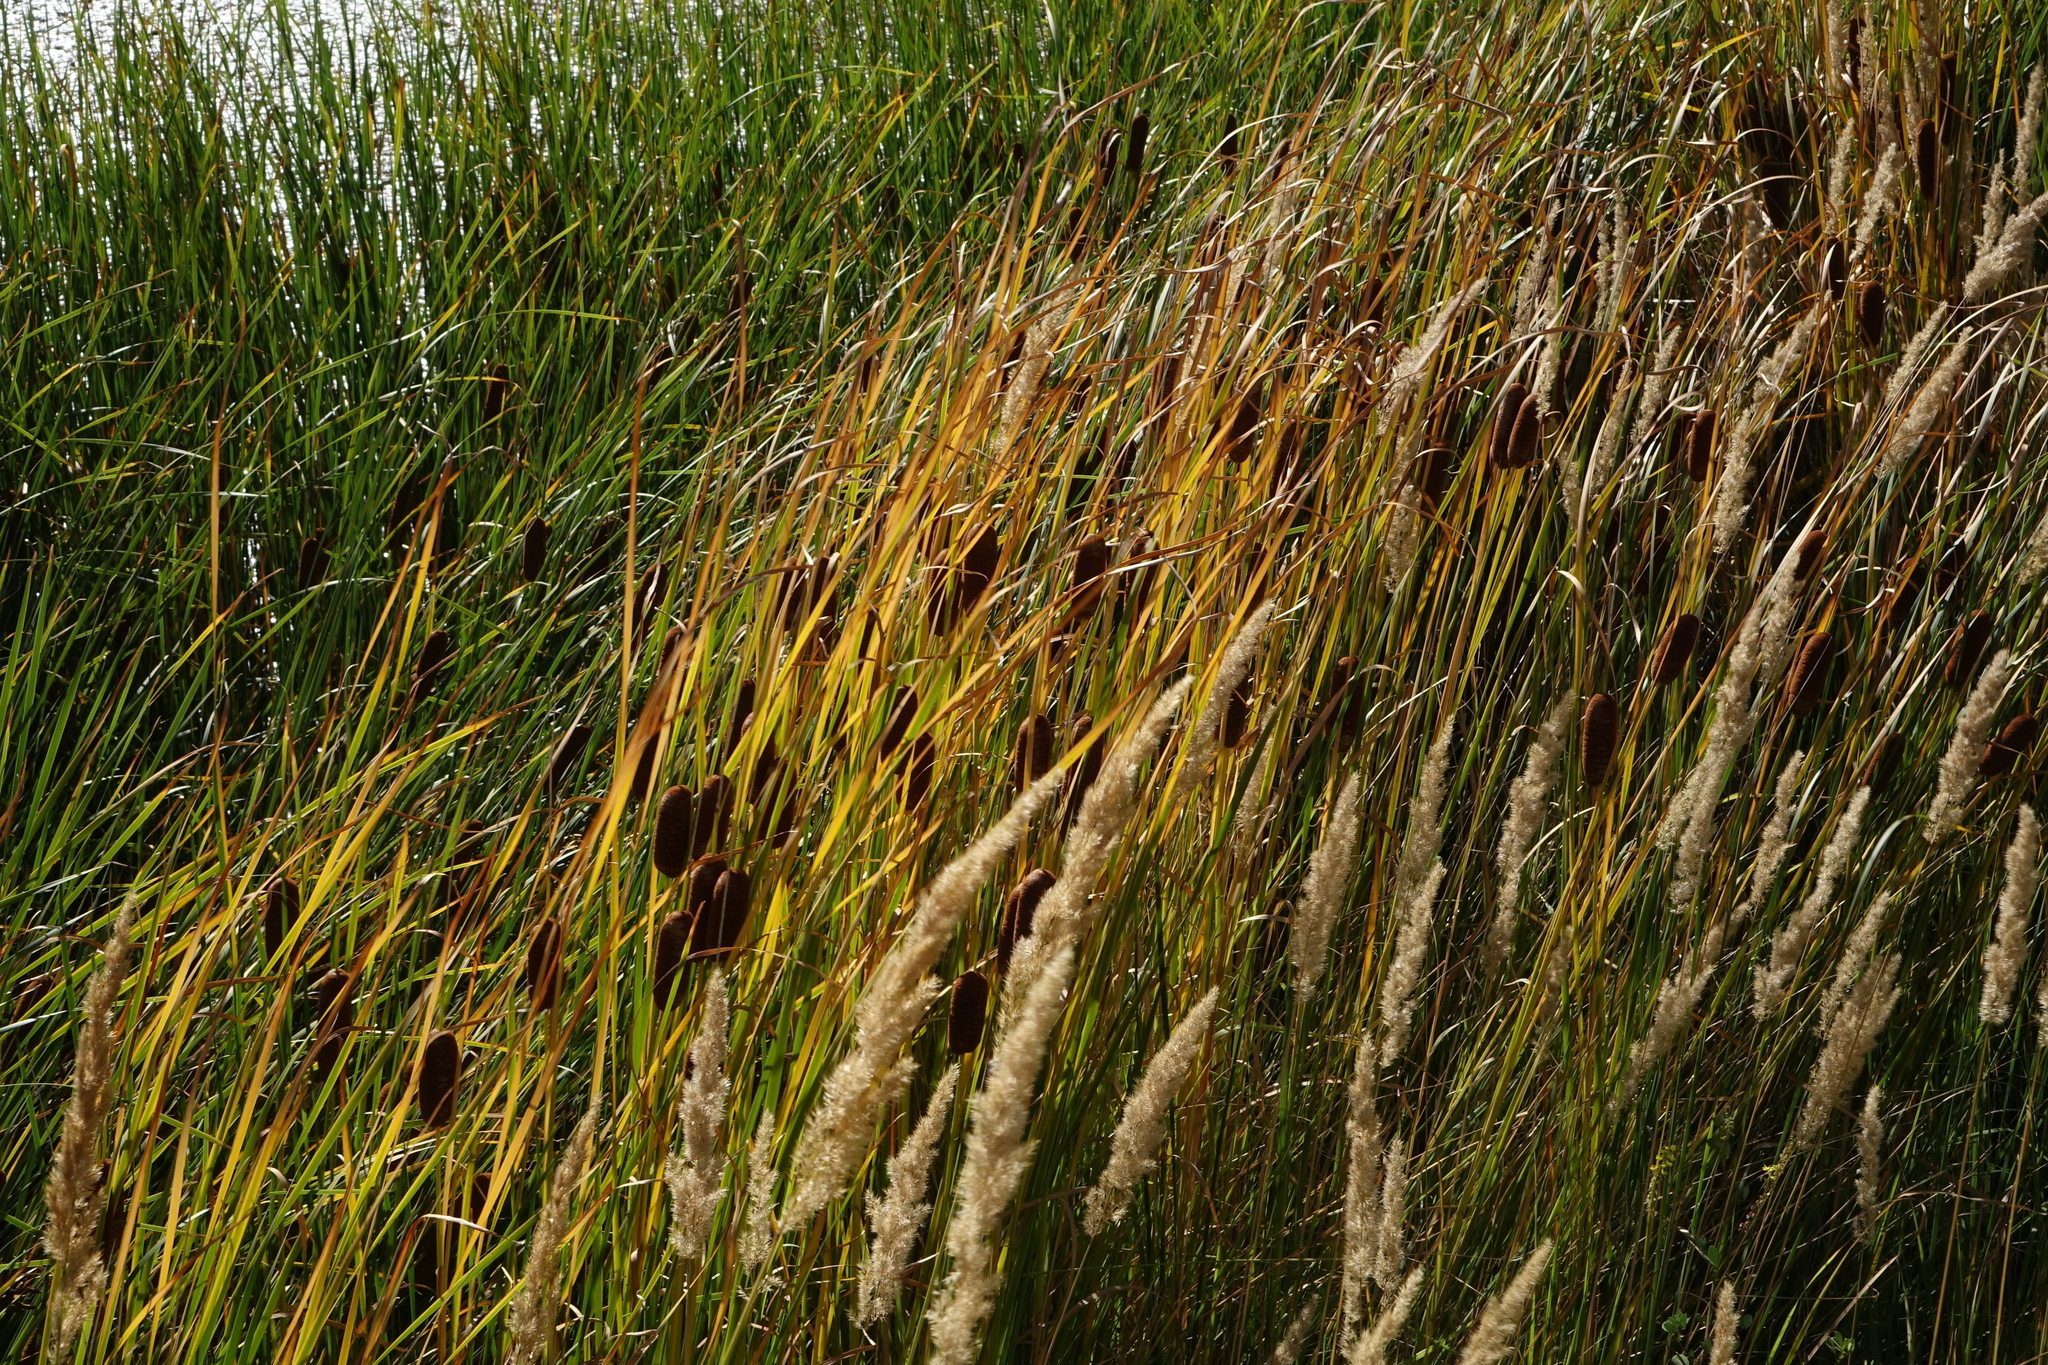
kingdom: Plantae
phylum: Tracheophyta
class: Liliopsida
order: Poales
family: Typhaceae
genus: Typha
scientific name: Typha laxmannii
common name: Laxman’s bulrush
